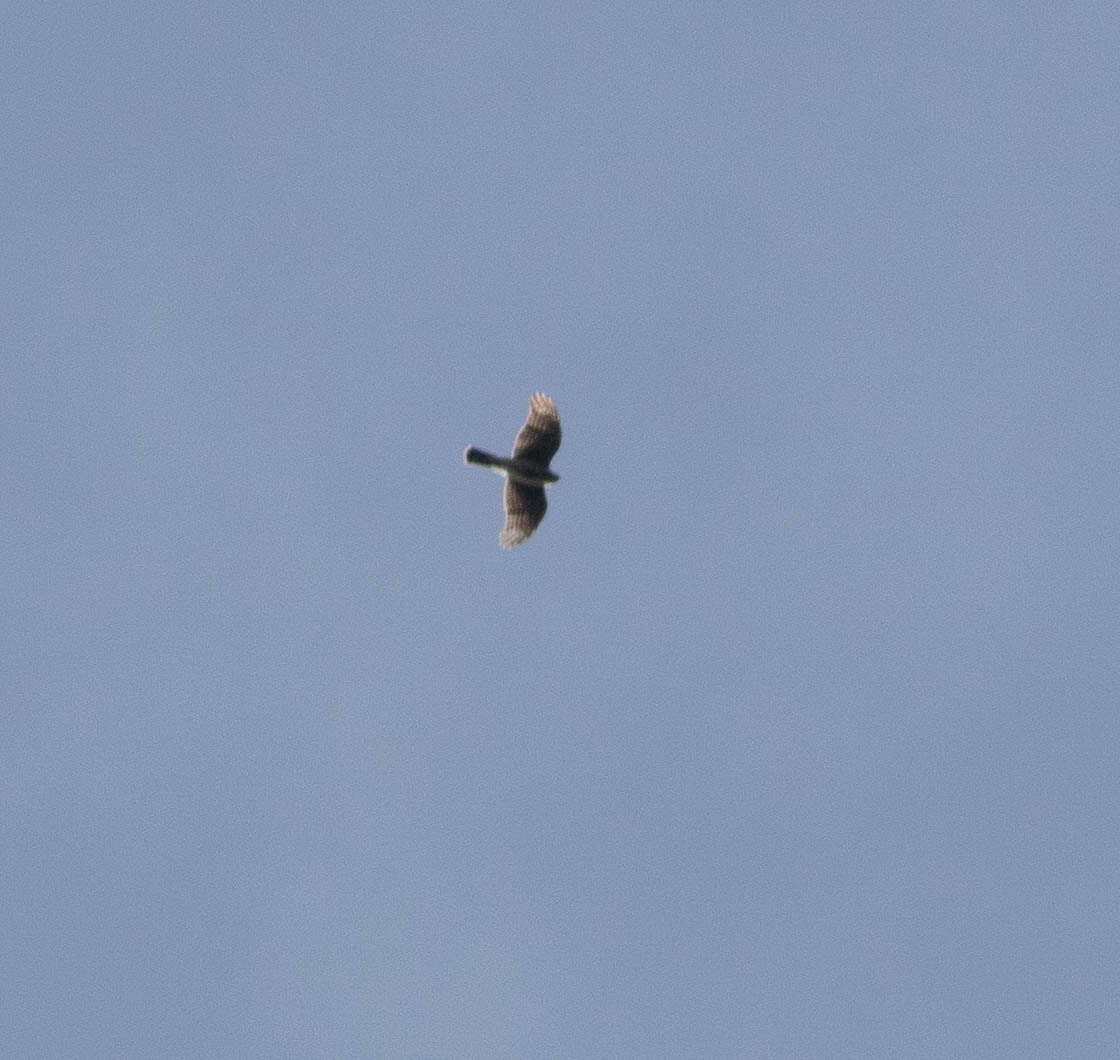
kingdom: Animalia
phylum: Chordata
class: Aves
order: Accipitriformes
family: Accipitridae
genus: Accipiter
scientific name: Accipiter striatus
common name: Sharp-shinned hawk
